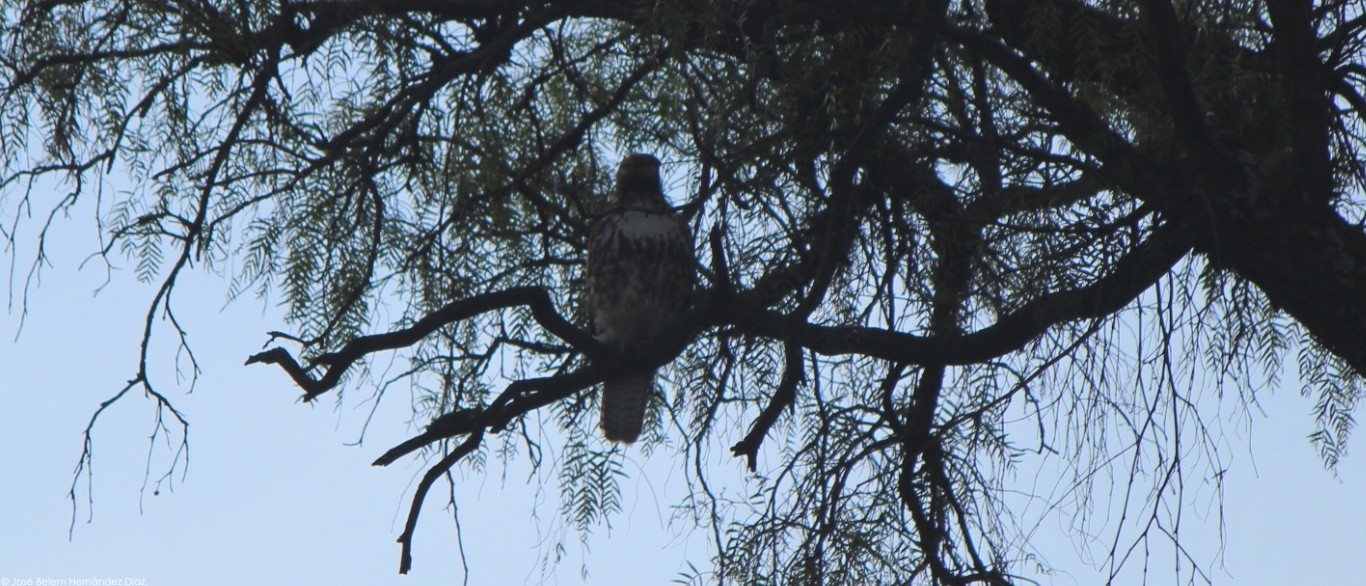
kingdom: Animalia
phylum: Chordata
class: Aves
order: Accipitriformes
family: Accipitridae
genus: Buteo
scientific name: Buteo jamaicensis
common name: Red-tailed hawk
